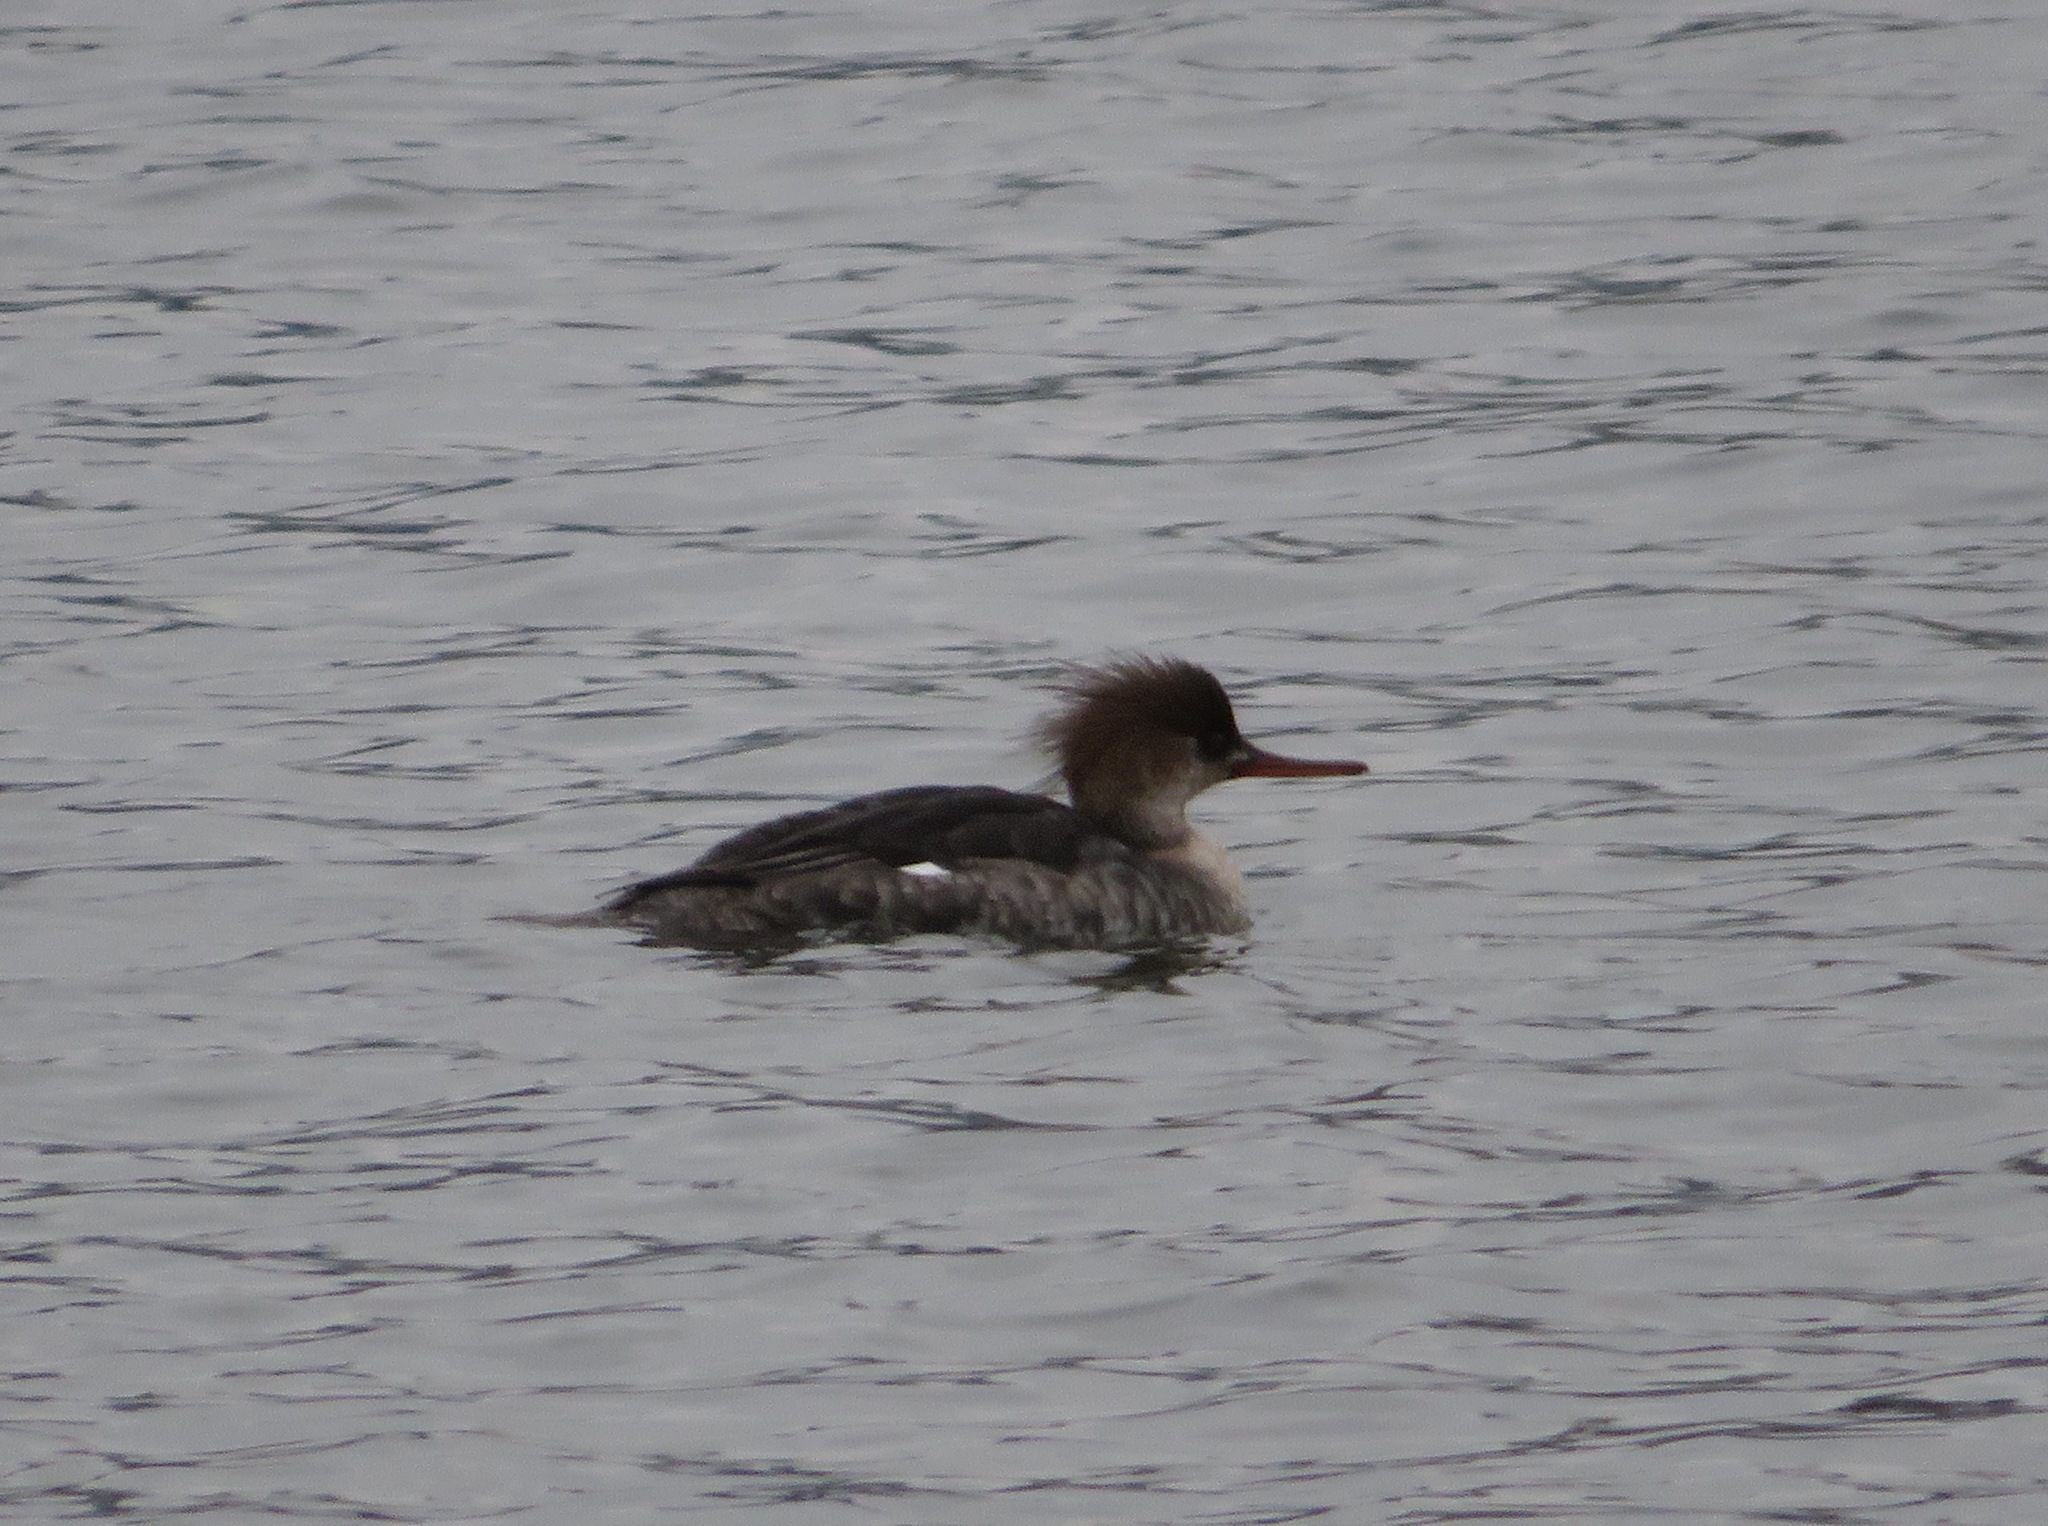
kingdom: Animalia
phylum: Chordata
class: Aves
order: Anseriformes
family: Anatidae
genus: Mergus
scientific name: Mergus serrator
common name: Red-breasted merganser
